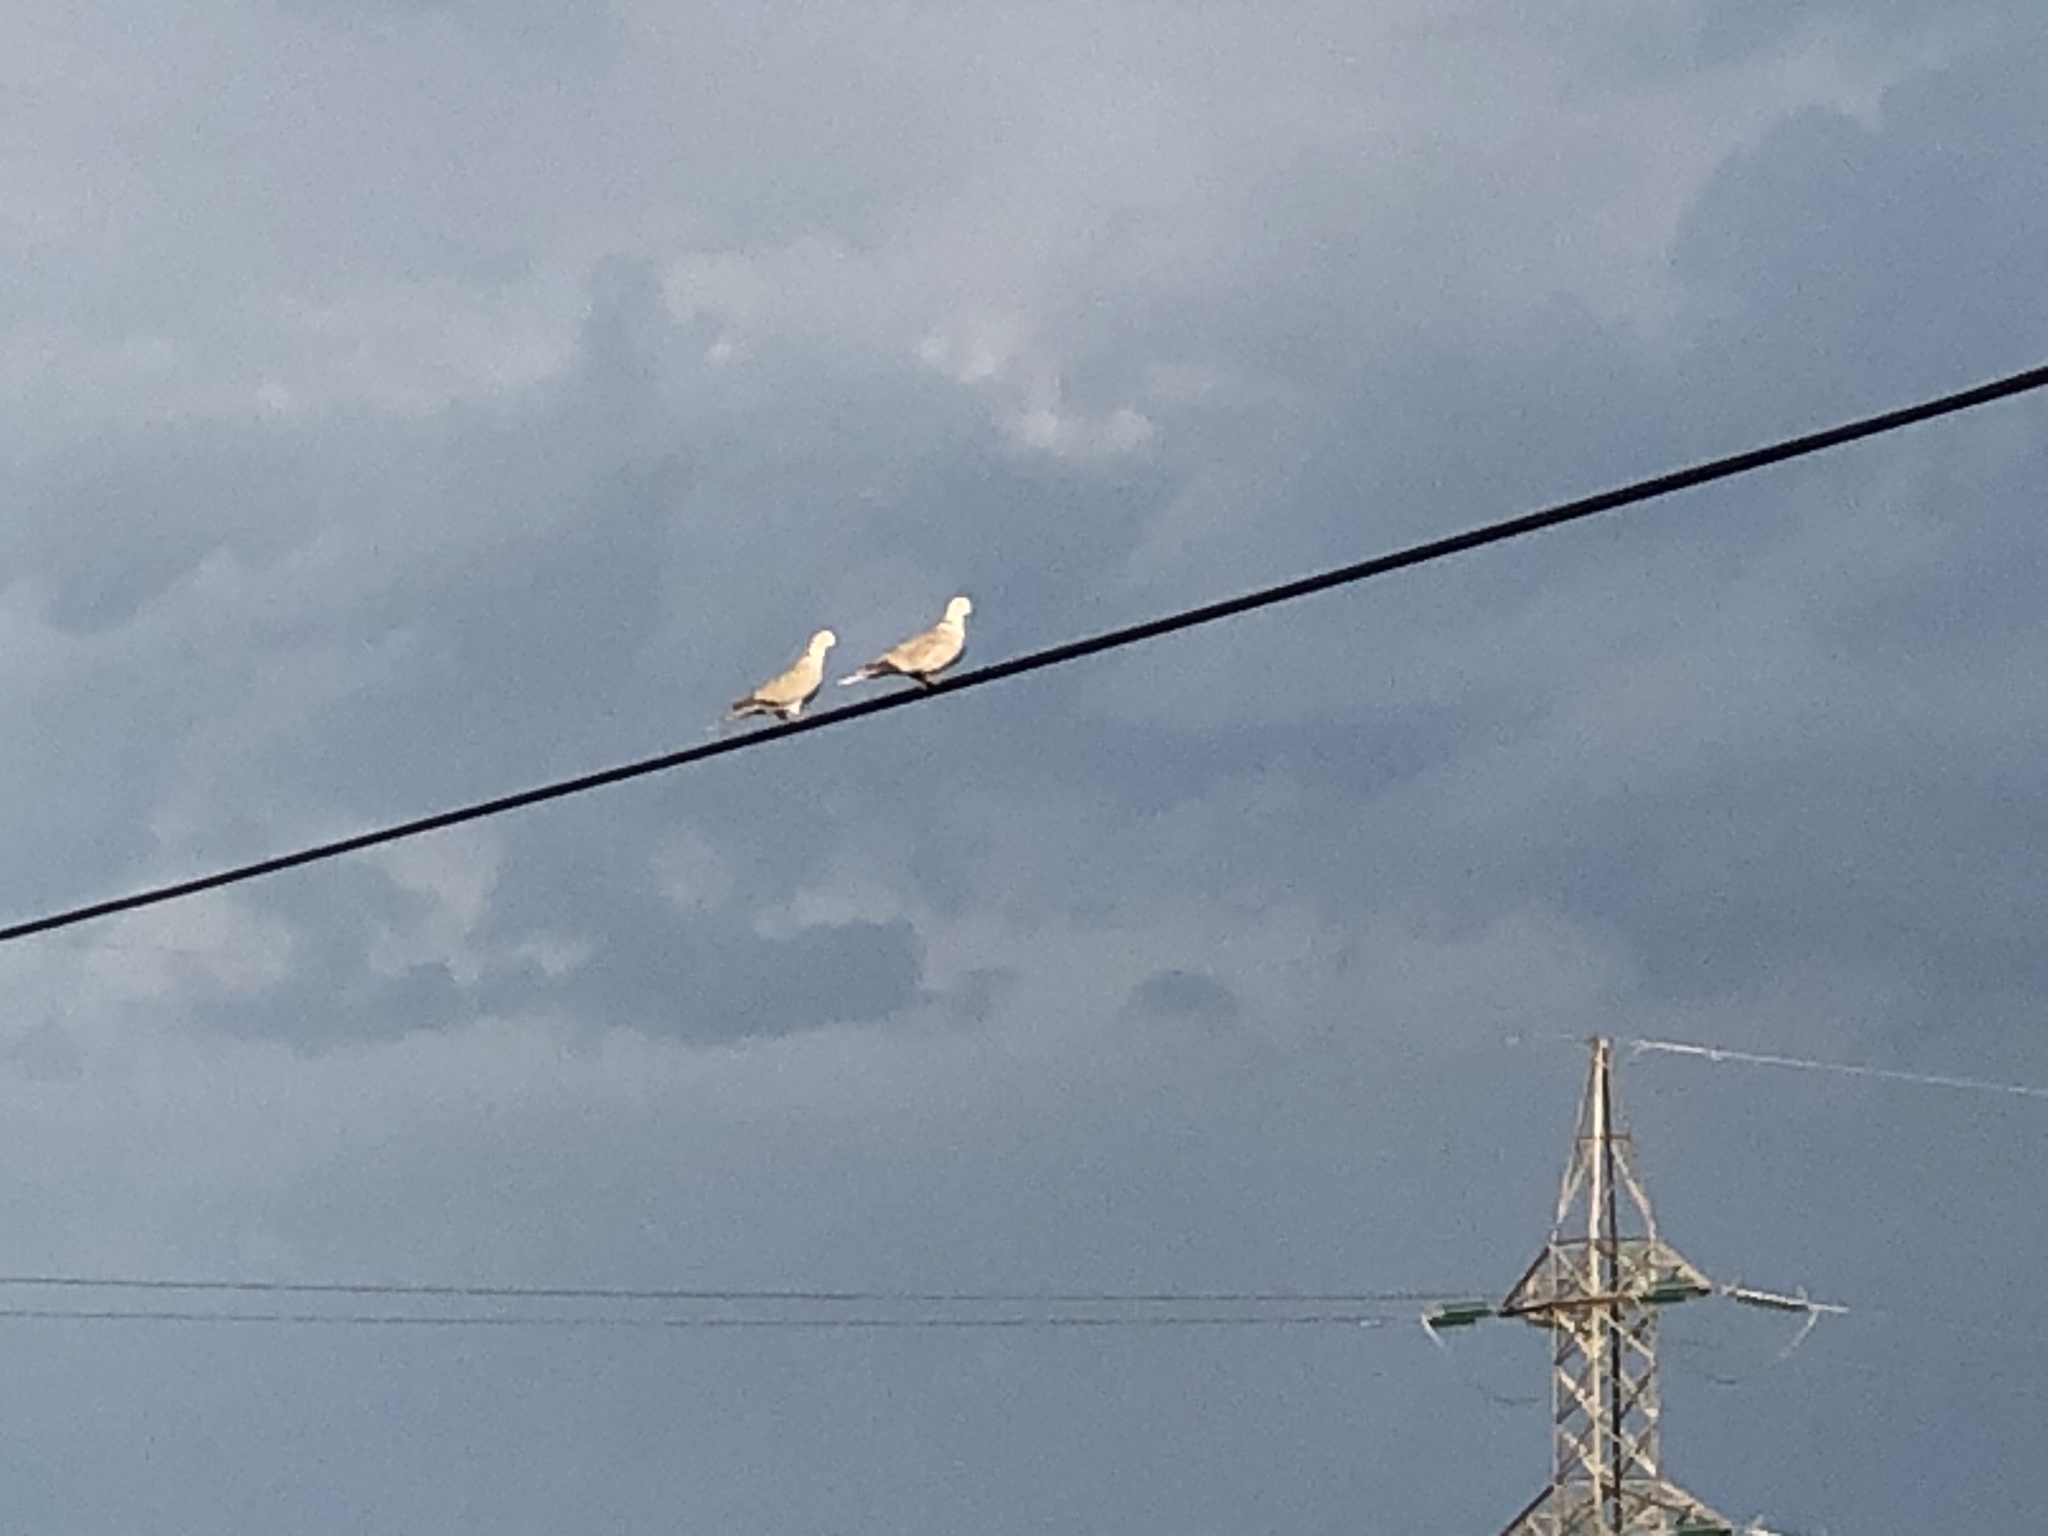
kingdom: Animalia
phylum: Chordata
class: Aves
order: Columbiformes
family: Columbidae
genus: Streptopelia
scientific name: Streptopelia decaocto
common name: Eurasian collared dove
